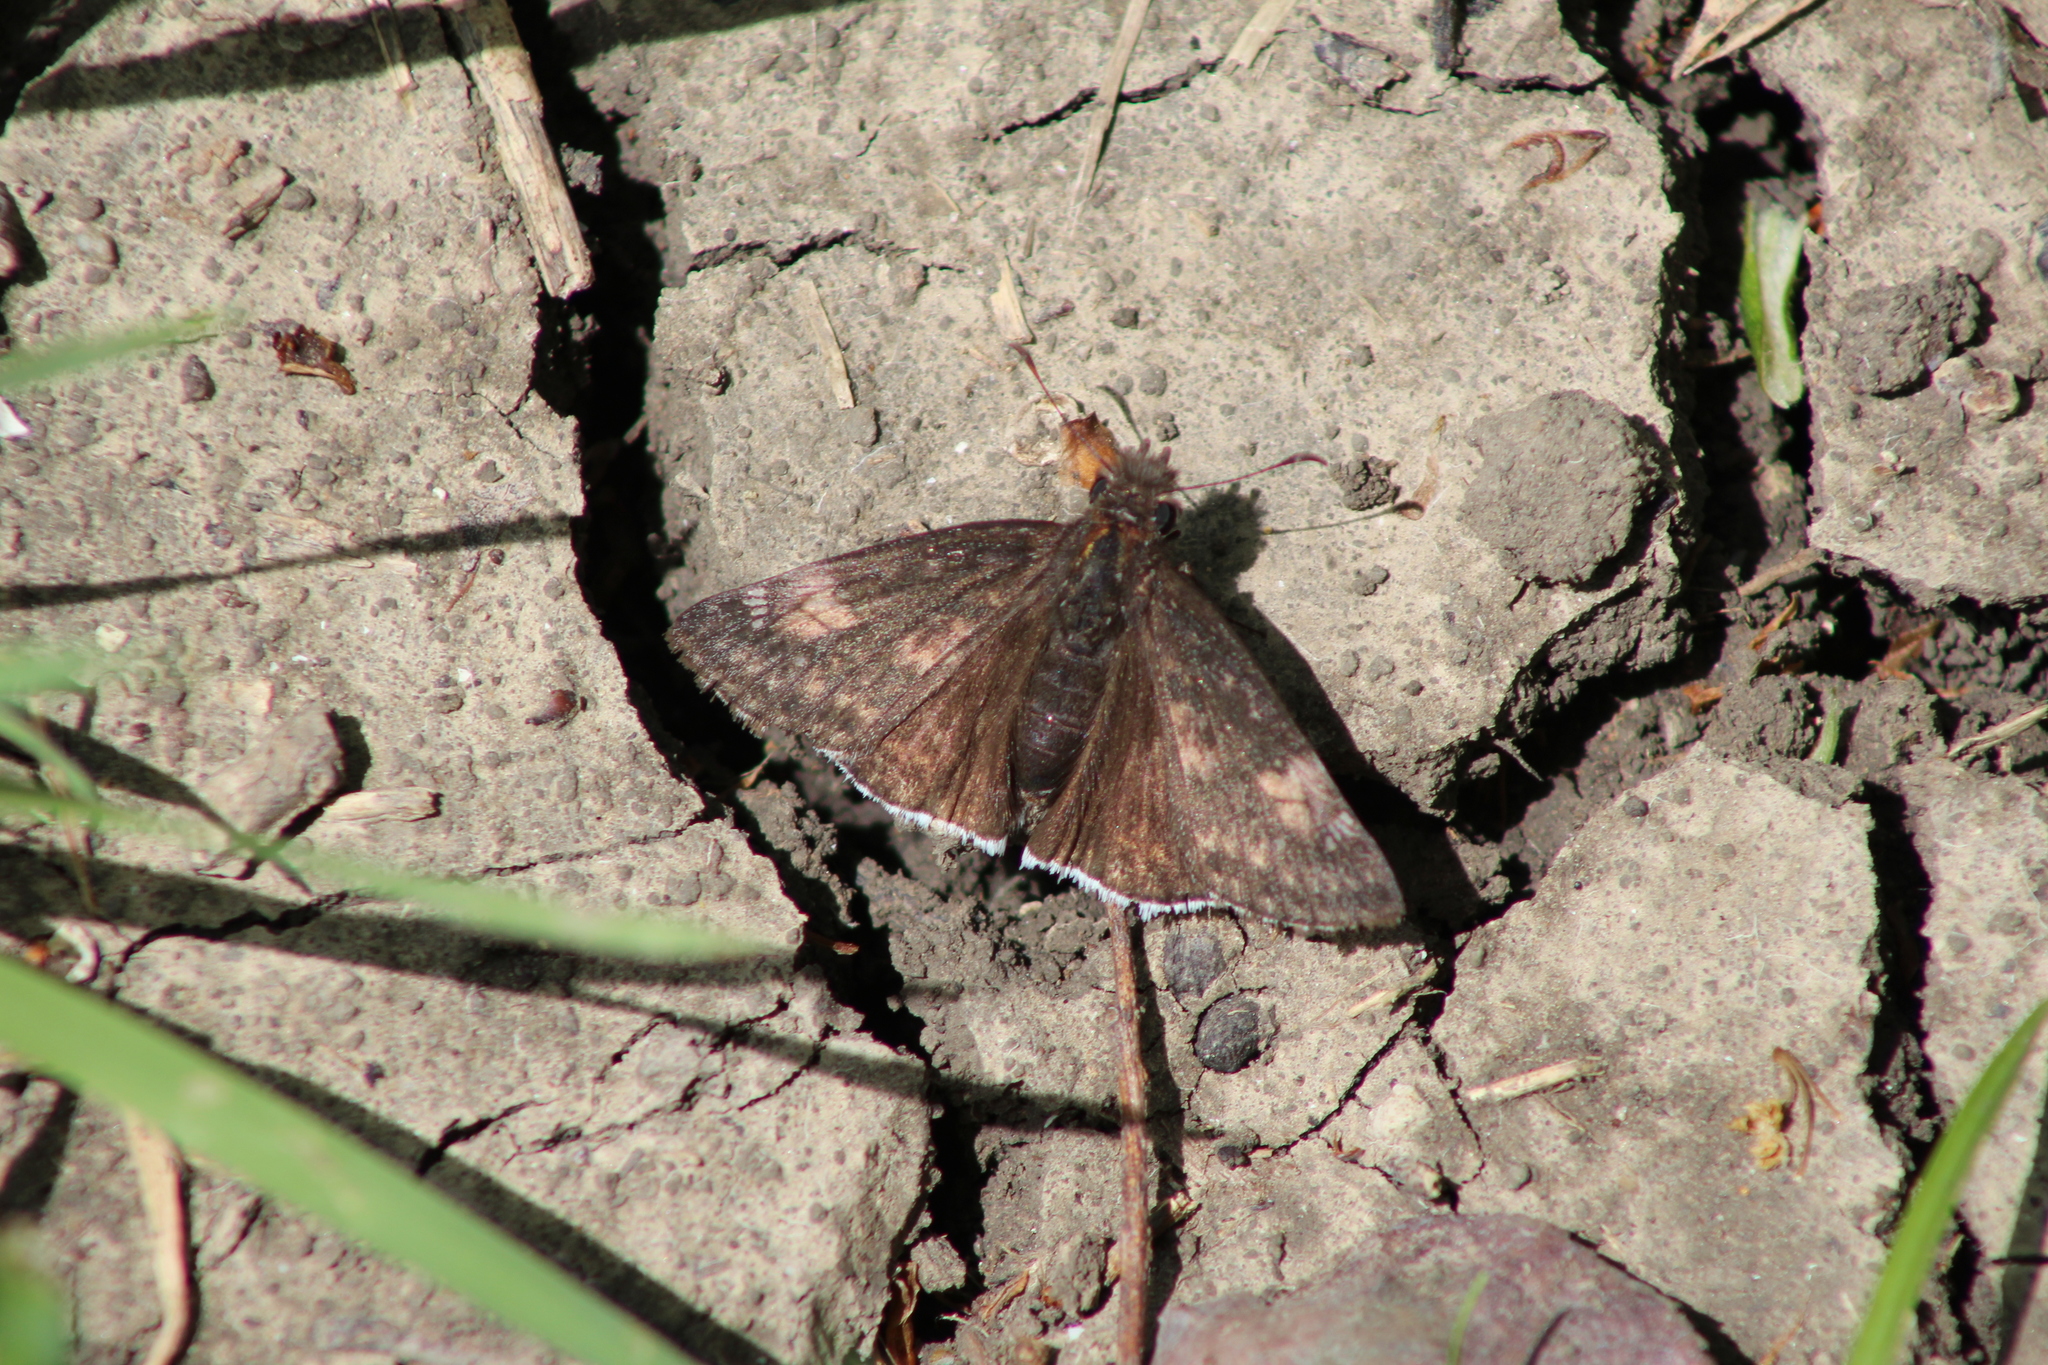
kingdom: Animalia
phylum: Arthropoda
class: Insecta
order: Lepidoptera
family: Hesperiidae
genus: Erynnis
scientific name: Erynnis funeralis
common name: Funereal duskywing
